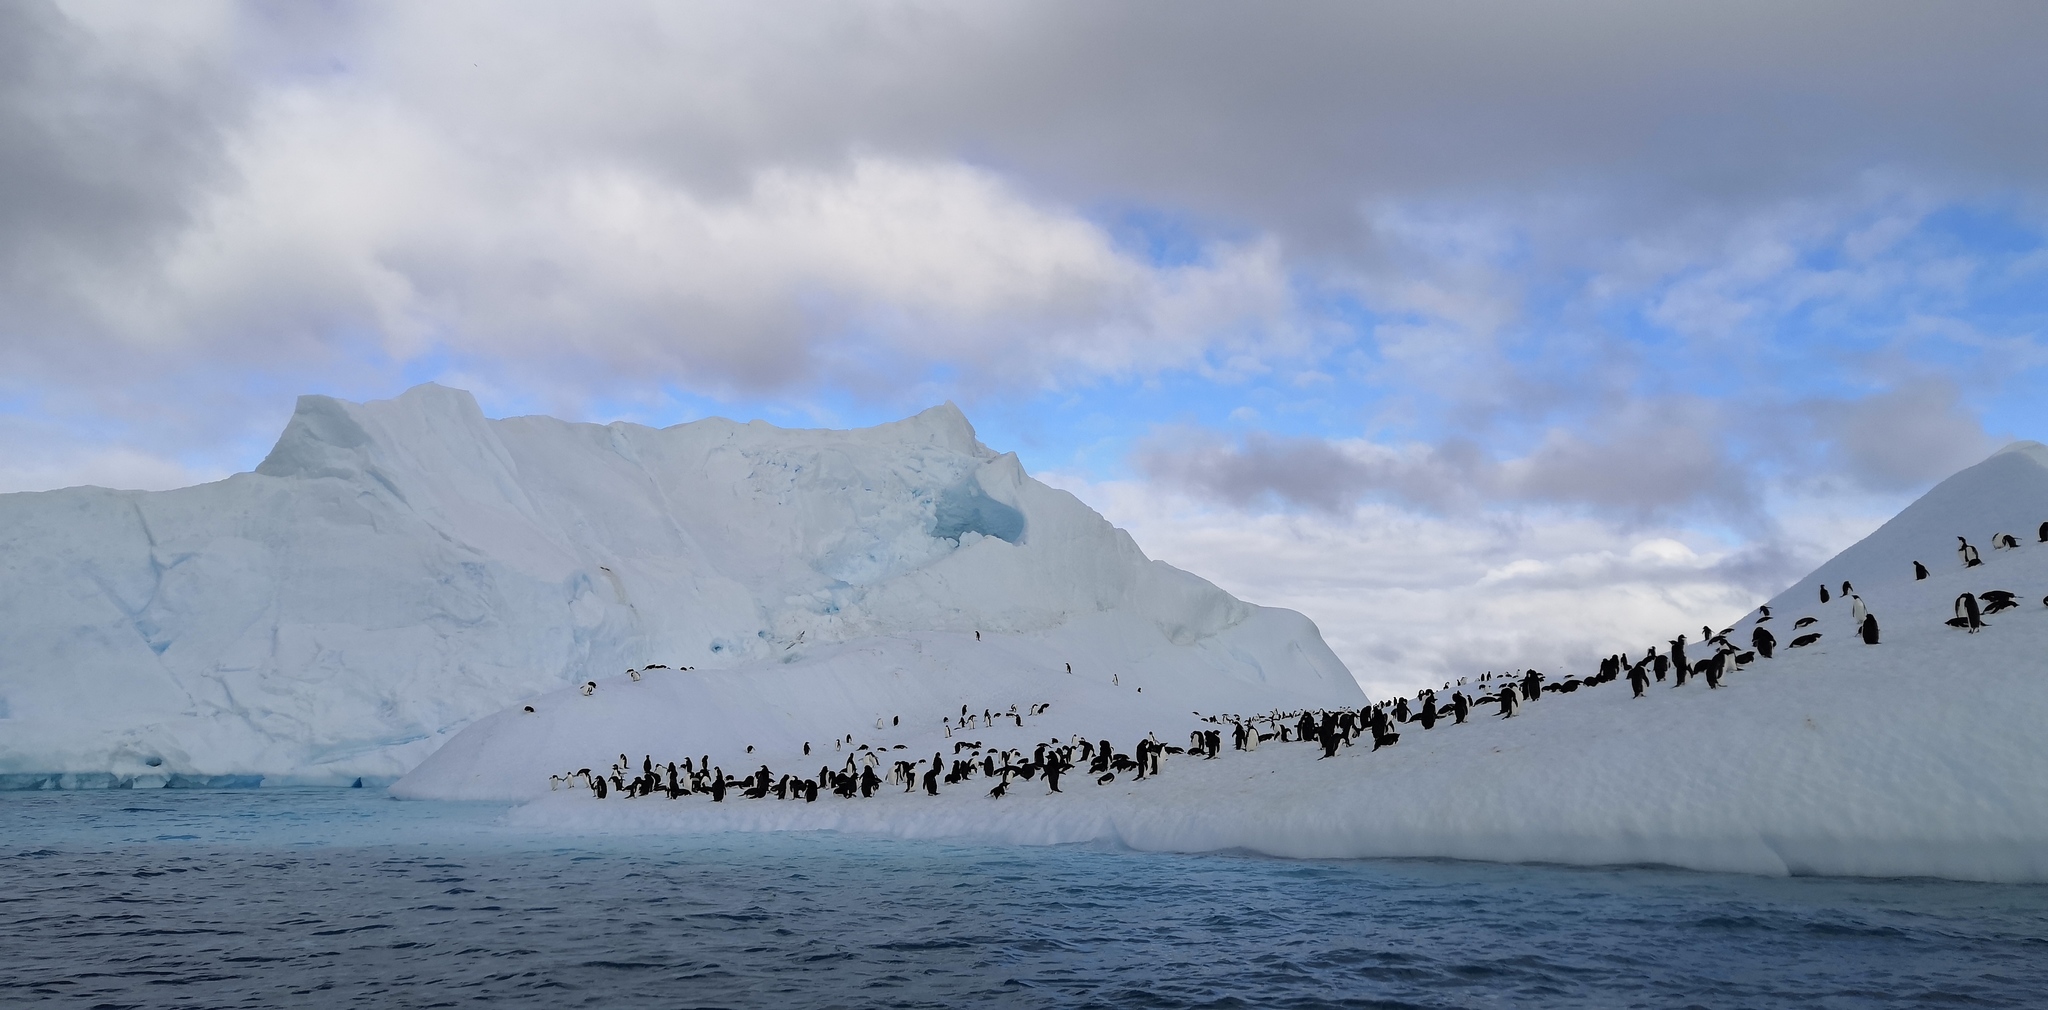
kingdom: Animalia
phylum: Chordata
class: Aves
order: Sphenisciformes
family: Spheniscidae
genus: Pygoscelis
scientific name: Pygoscelis adeliae
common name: Adelie penguin
